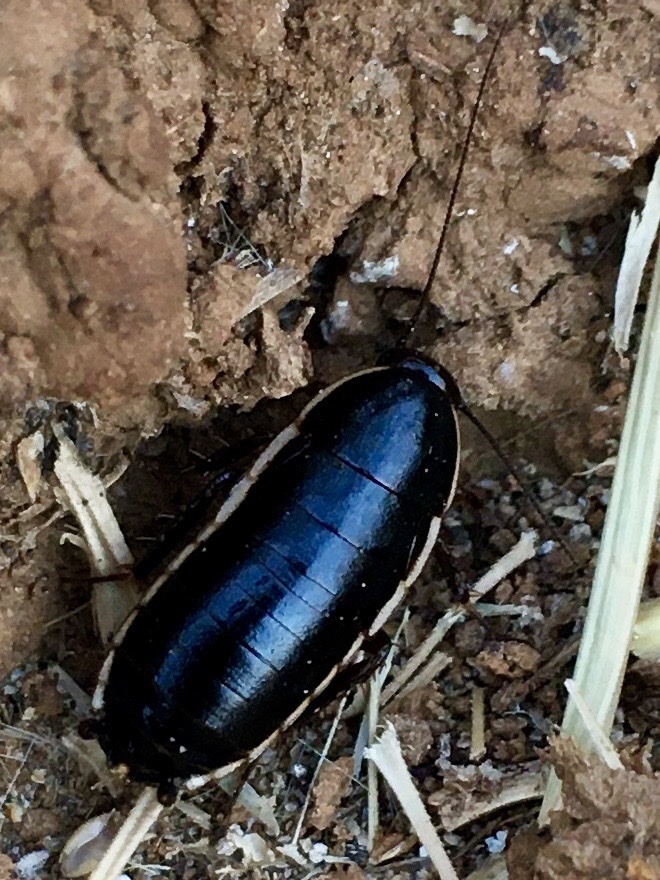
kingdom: Animalia
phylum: Arthropoda
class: Insecta
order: Blattodea
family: Ectobiidae
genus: Loboptera
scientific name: Loboptera decipiens
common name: Lobe-winged cockroach
